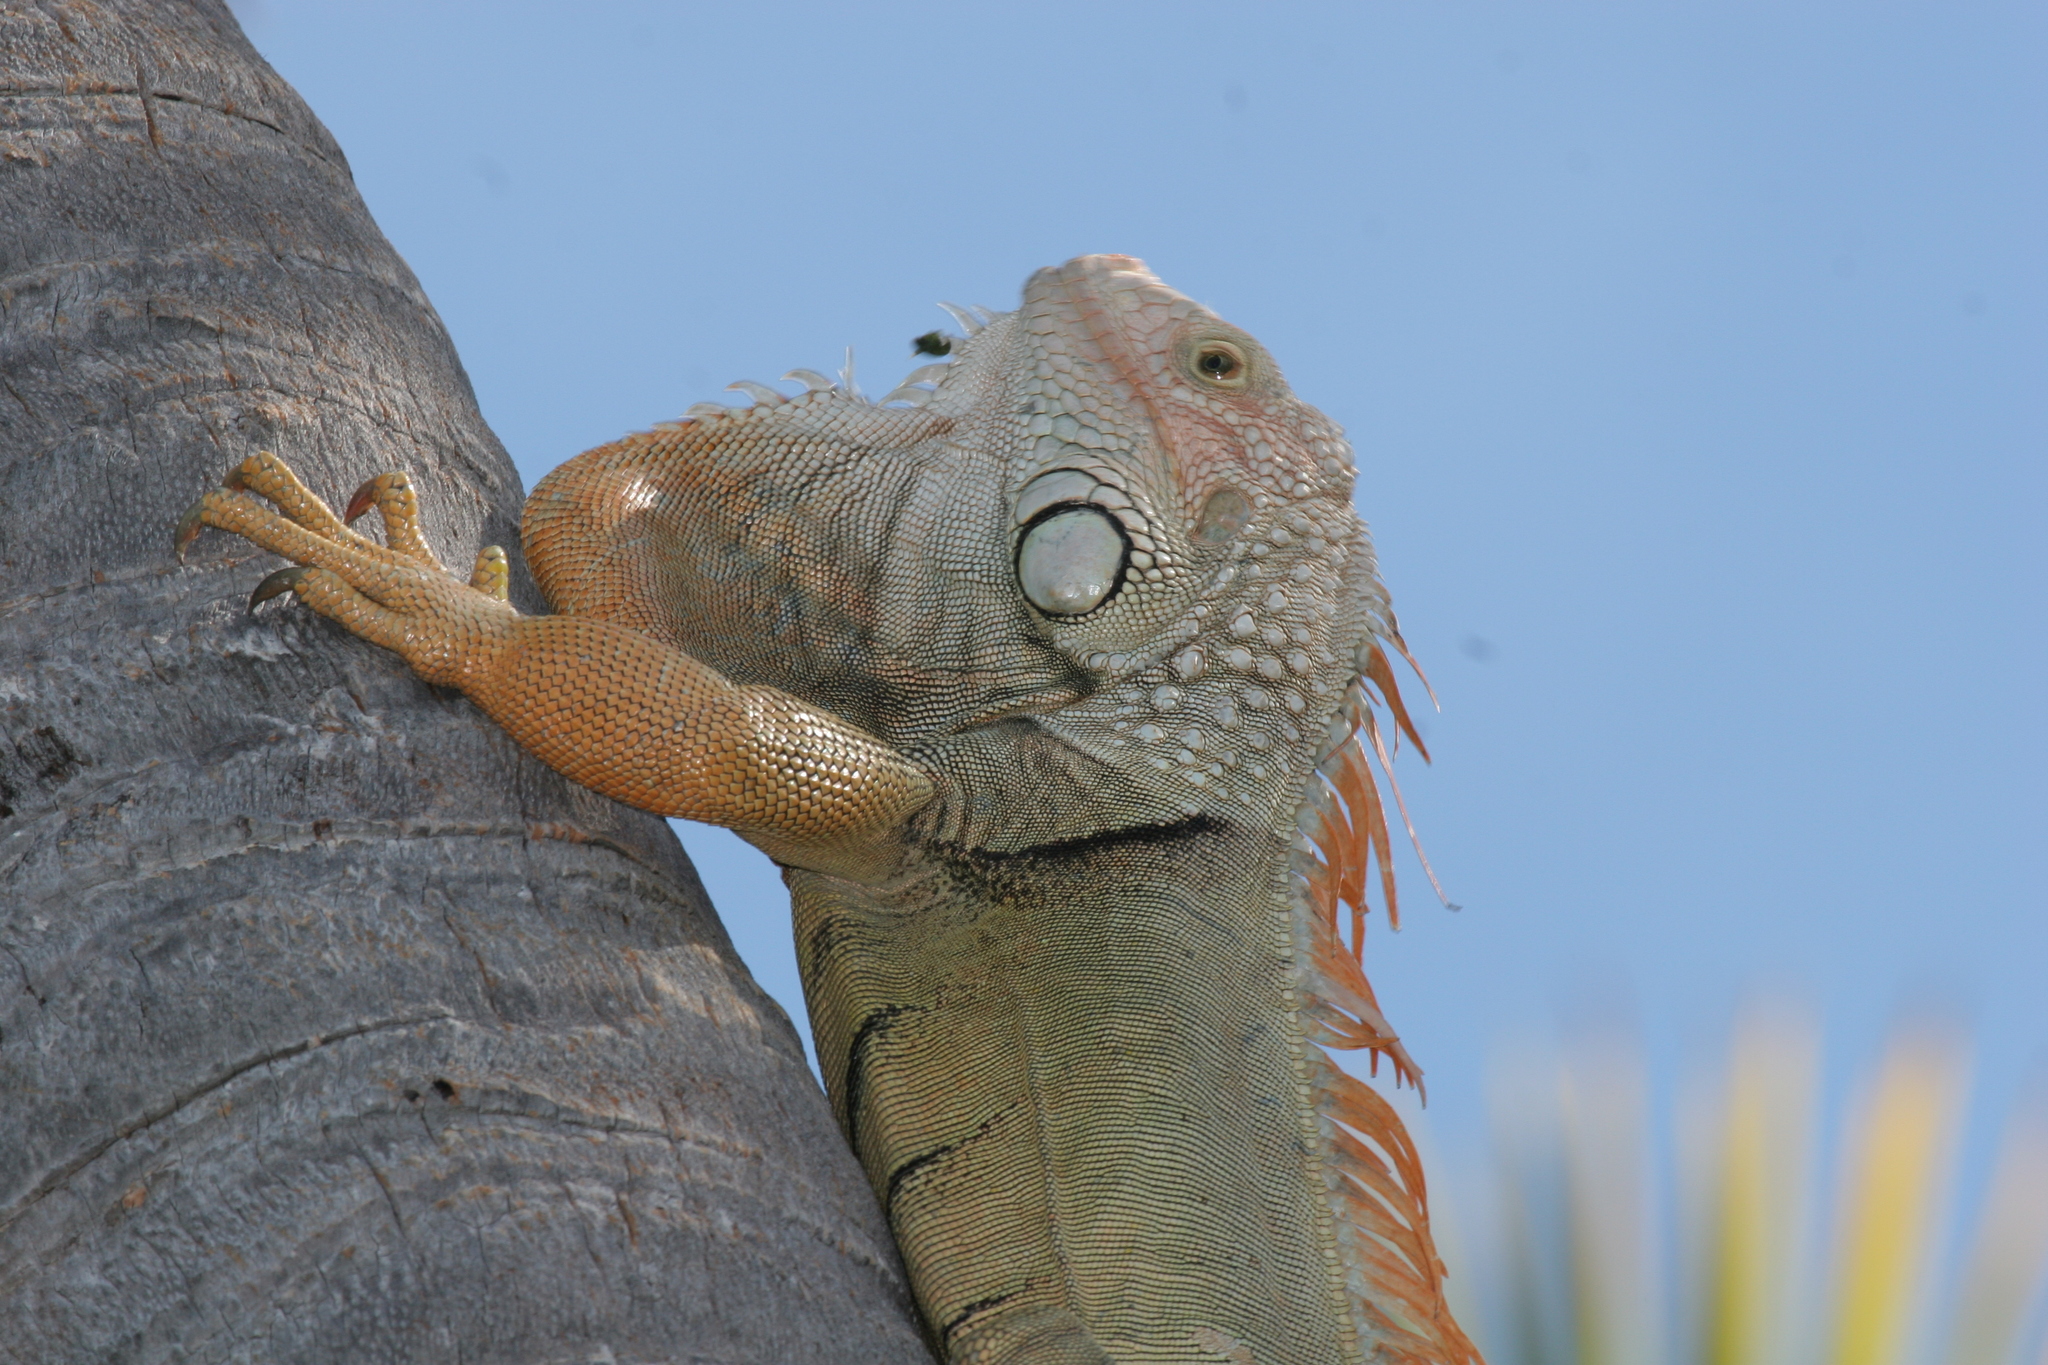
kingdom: Animalia
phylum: Chordata
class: Squamata
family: Iguanidae
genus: Iguana
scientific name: Iguana iguana
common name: Green iguana
